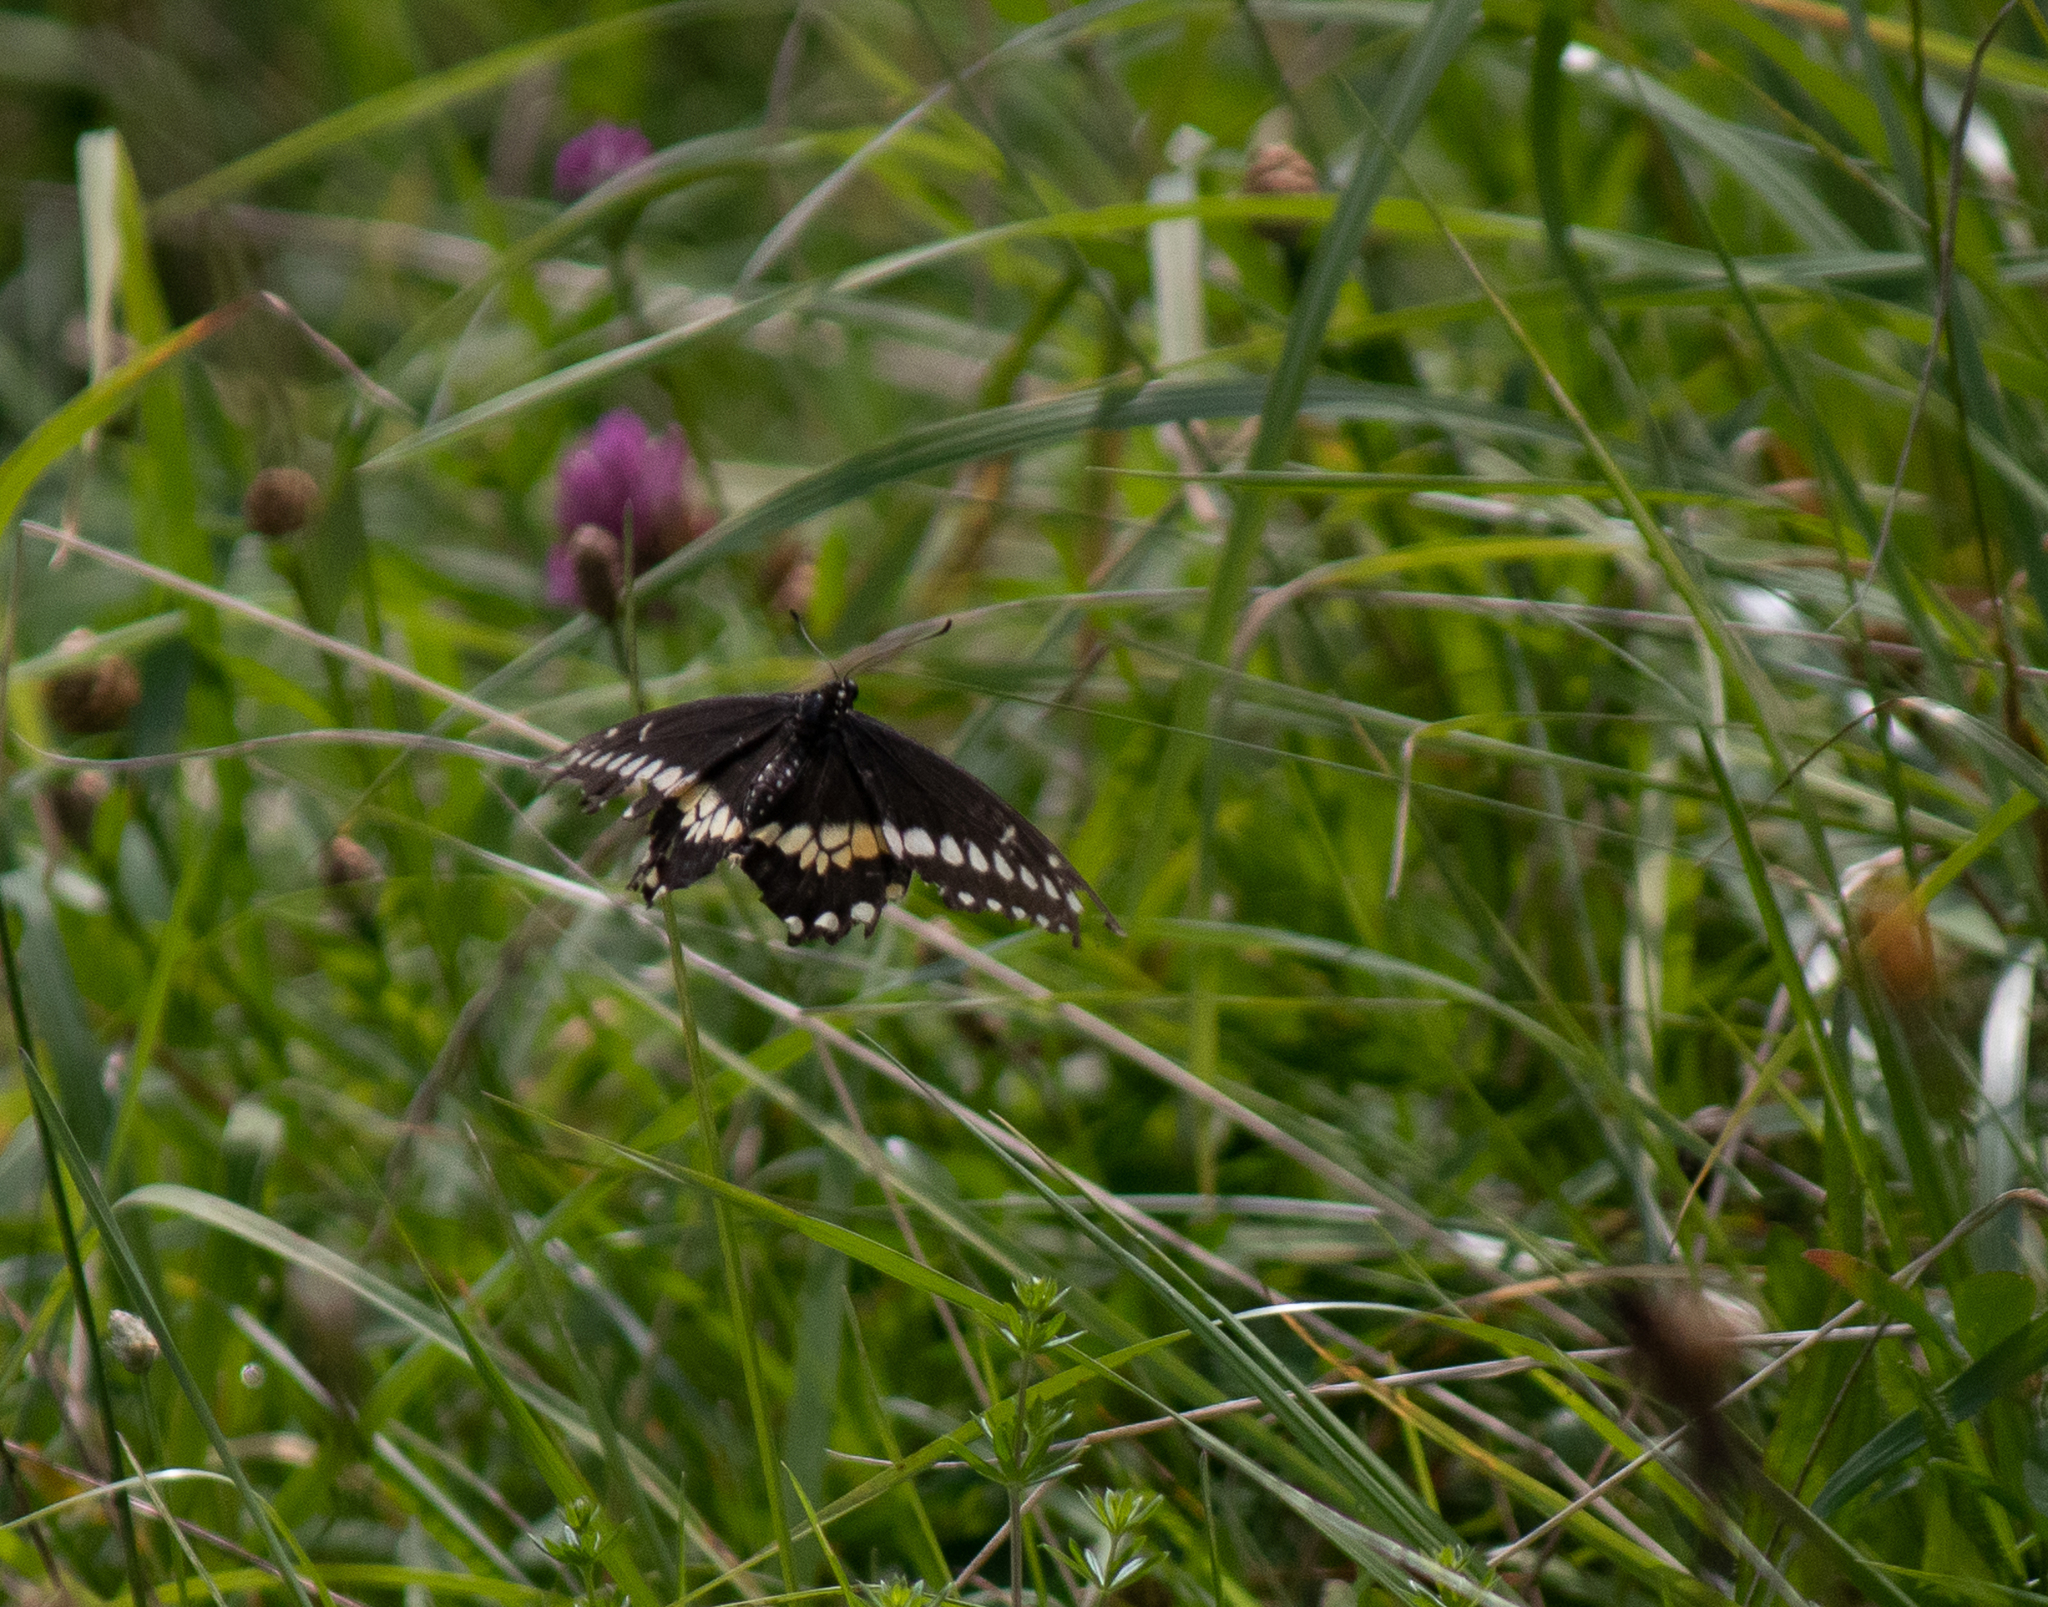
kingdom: Animalia
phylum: Arthropoda
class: Insecta
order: Lepidoptera
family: Papilionidae
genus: Papilio
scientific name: Papilio polyxenes
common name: Black swallowtail
